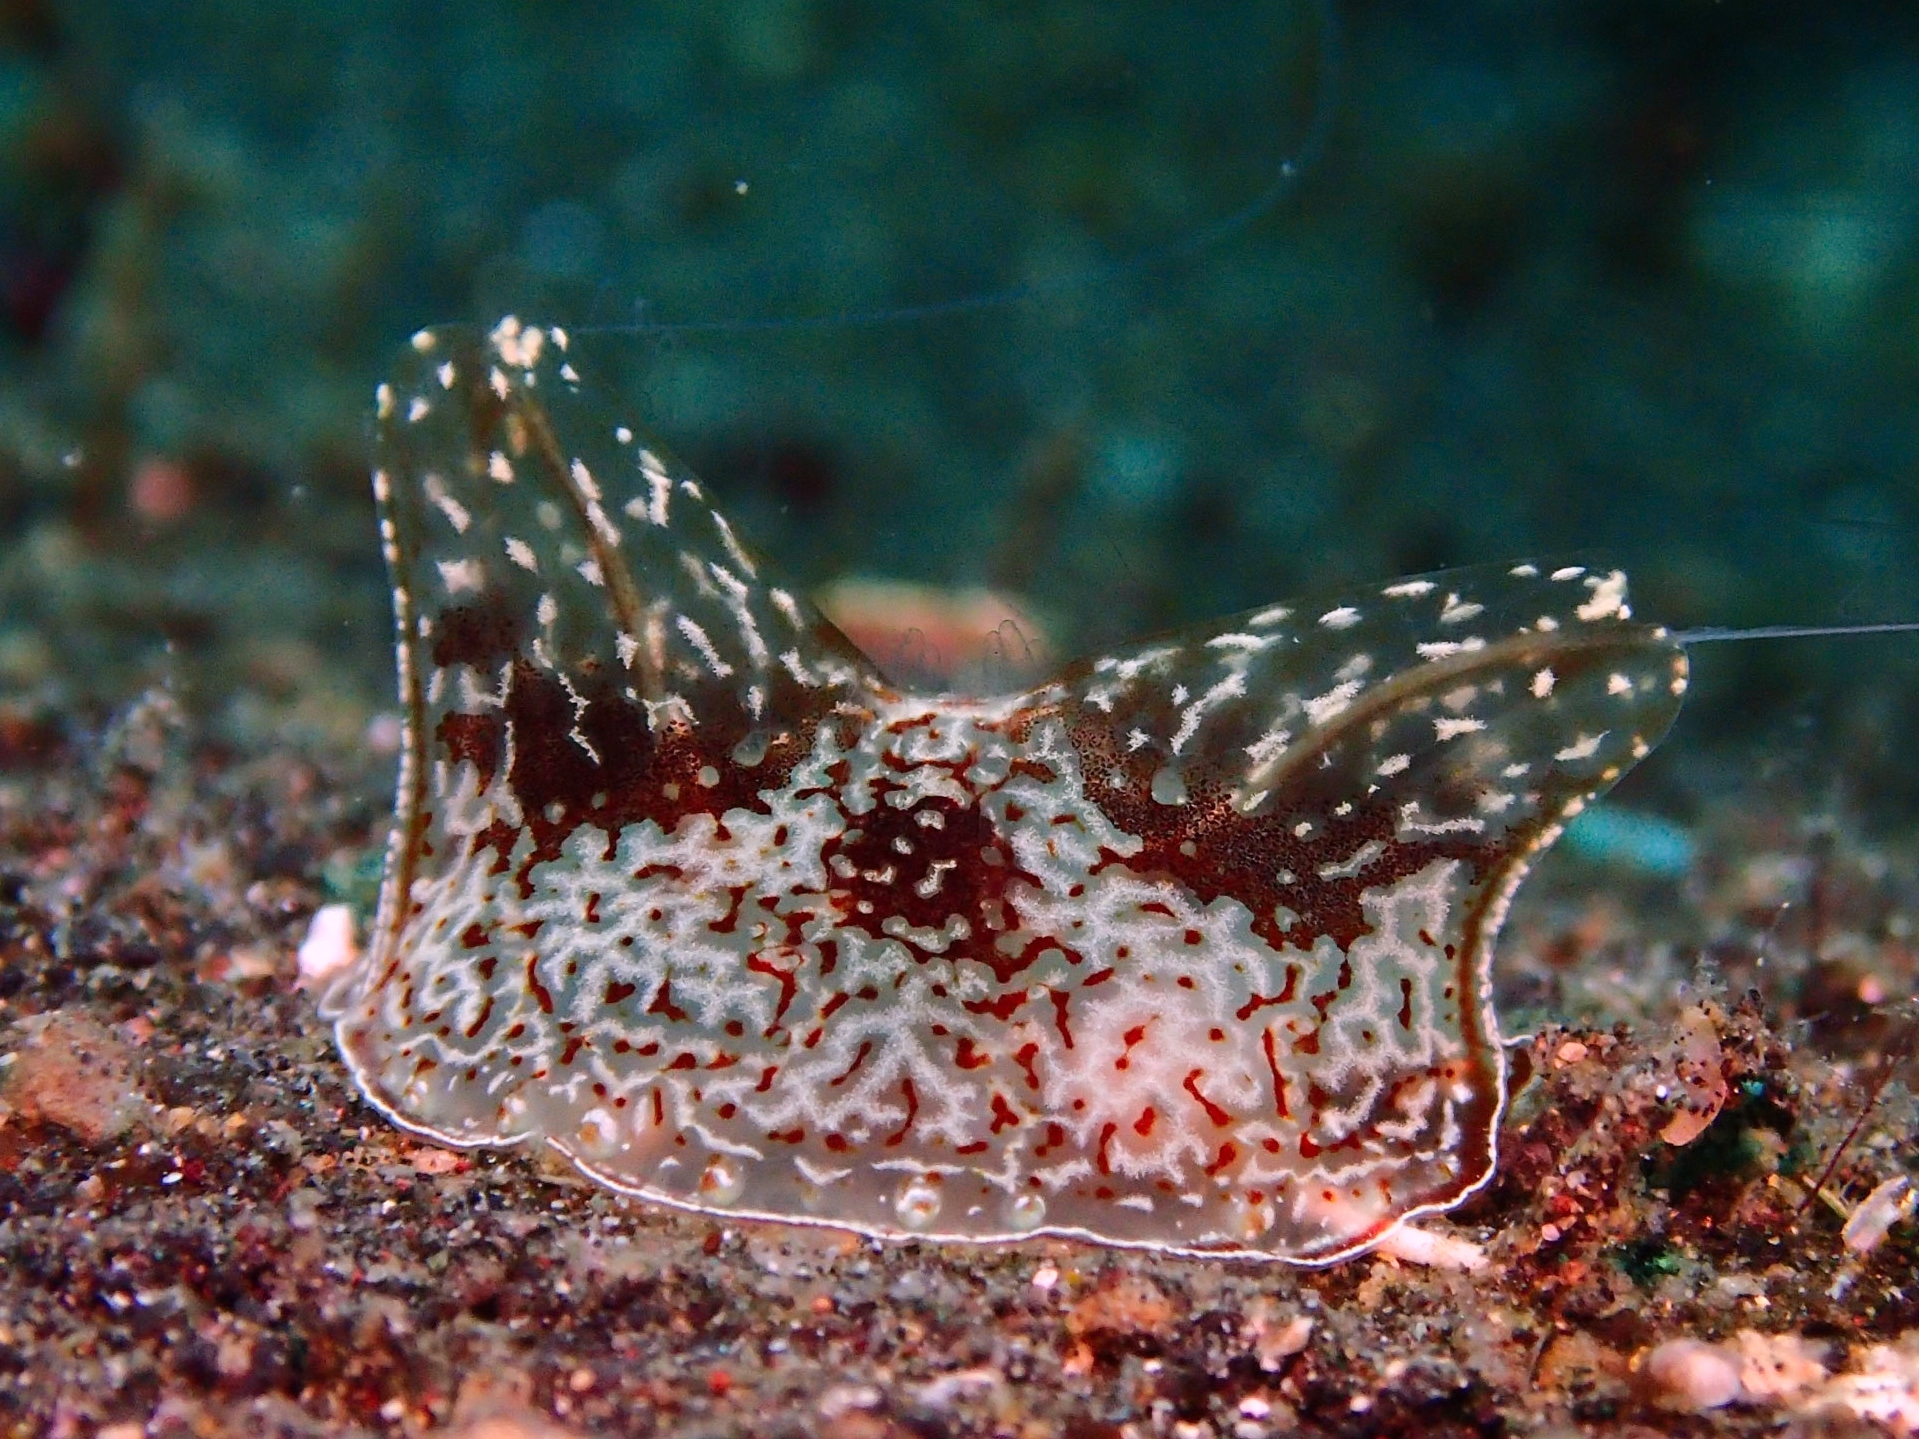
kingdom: Animalia
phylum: Ctenophora
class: Tentaculata
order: Platyctenida
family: Coeloplanidae
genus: Coeloplana
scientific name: Coeloplana meteoris
